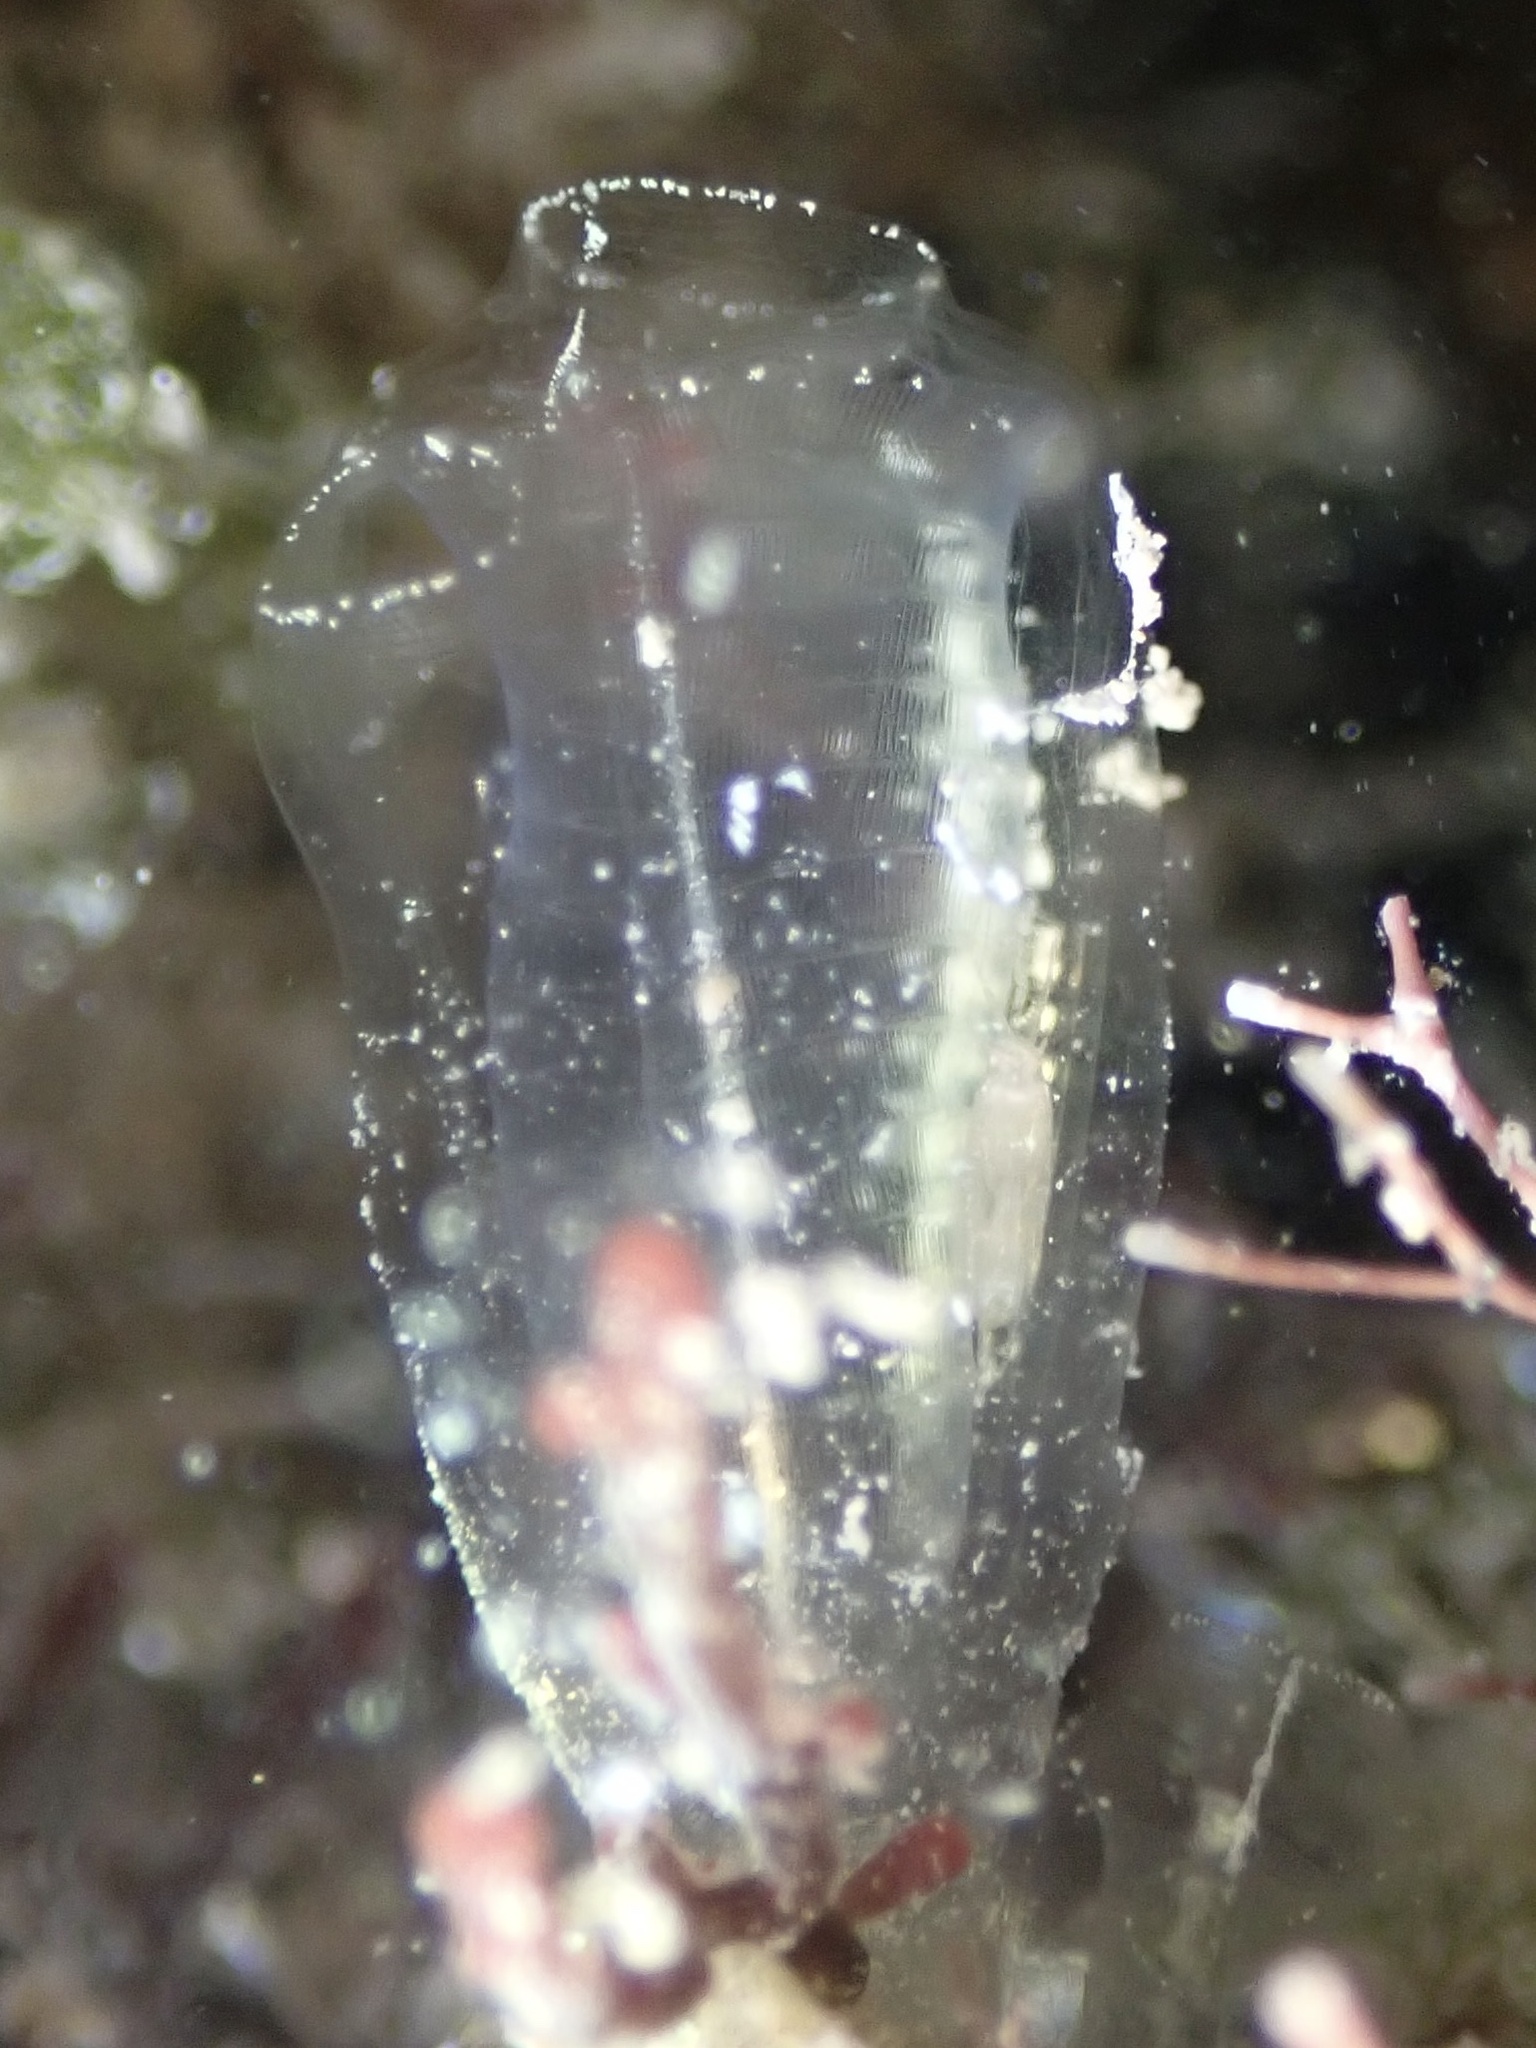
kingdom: Animalia
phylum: Chordata
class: Ascidiacea
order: Aplousobranchia
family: Clavelinidae
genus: Clavelina
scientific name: Clavelina oblonga
